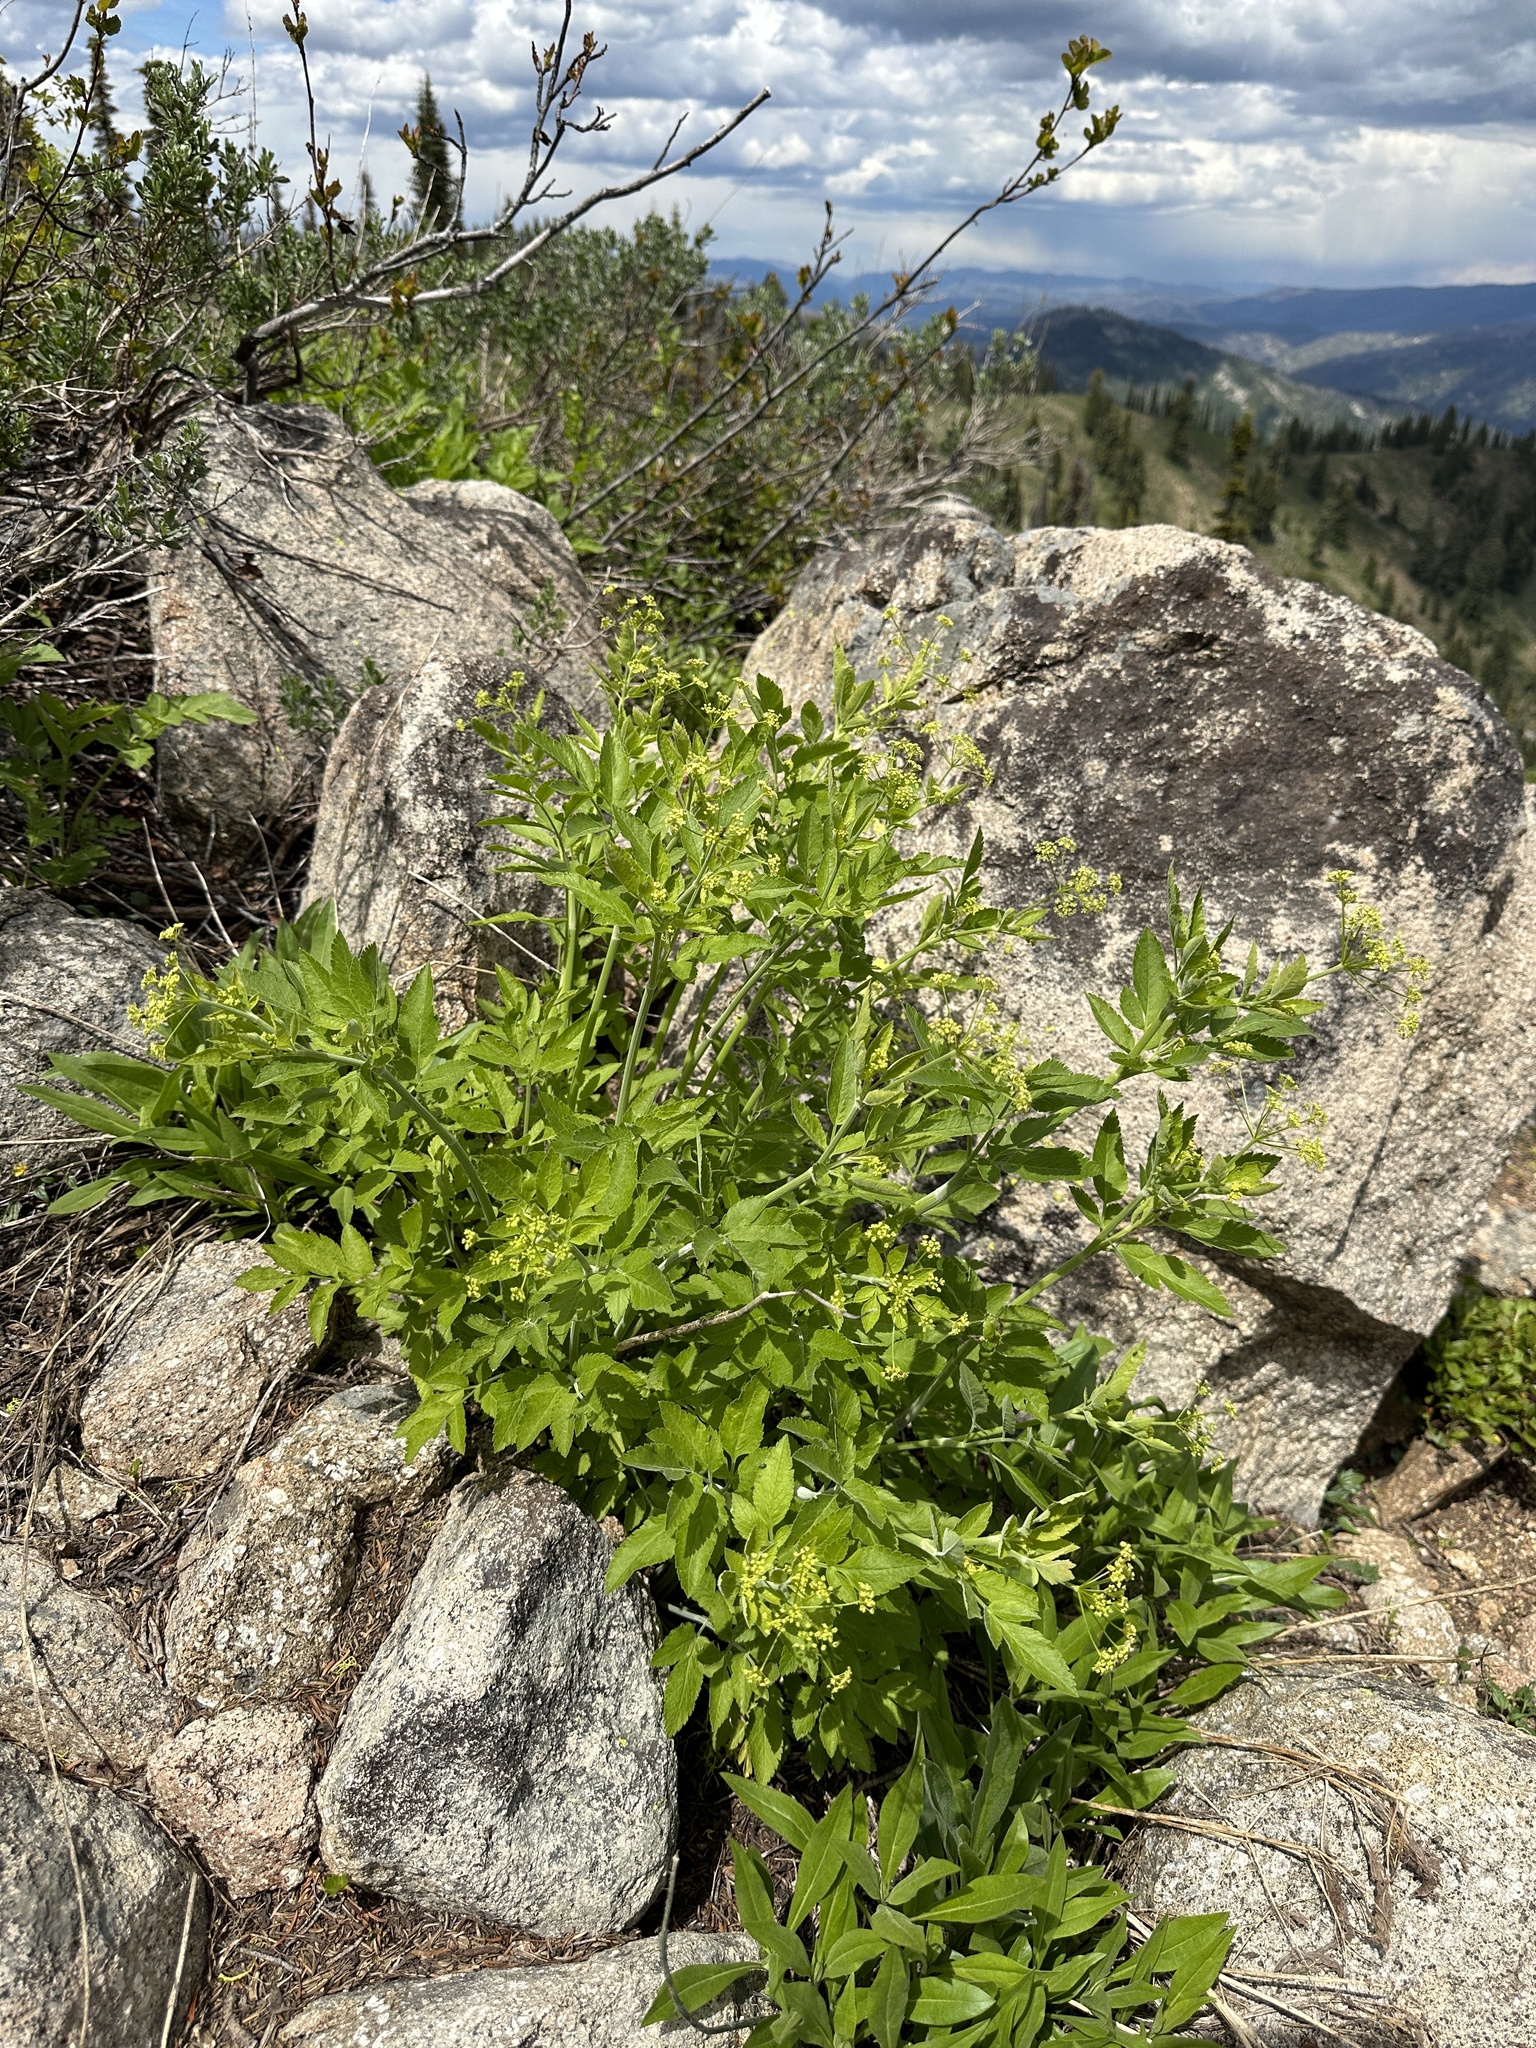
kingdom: Plantae
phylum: Tracheophyta
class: Magnoliopsida
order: Apiales
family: Apiaceae
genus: Osmorhiza
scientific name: Osmorhiza occidentalis
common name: Western sweet cicely
